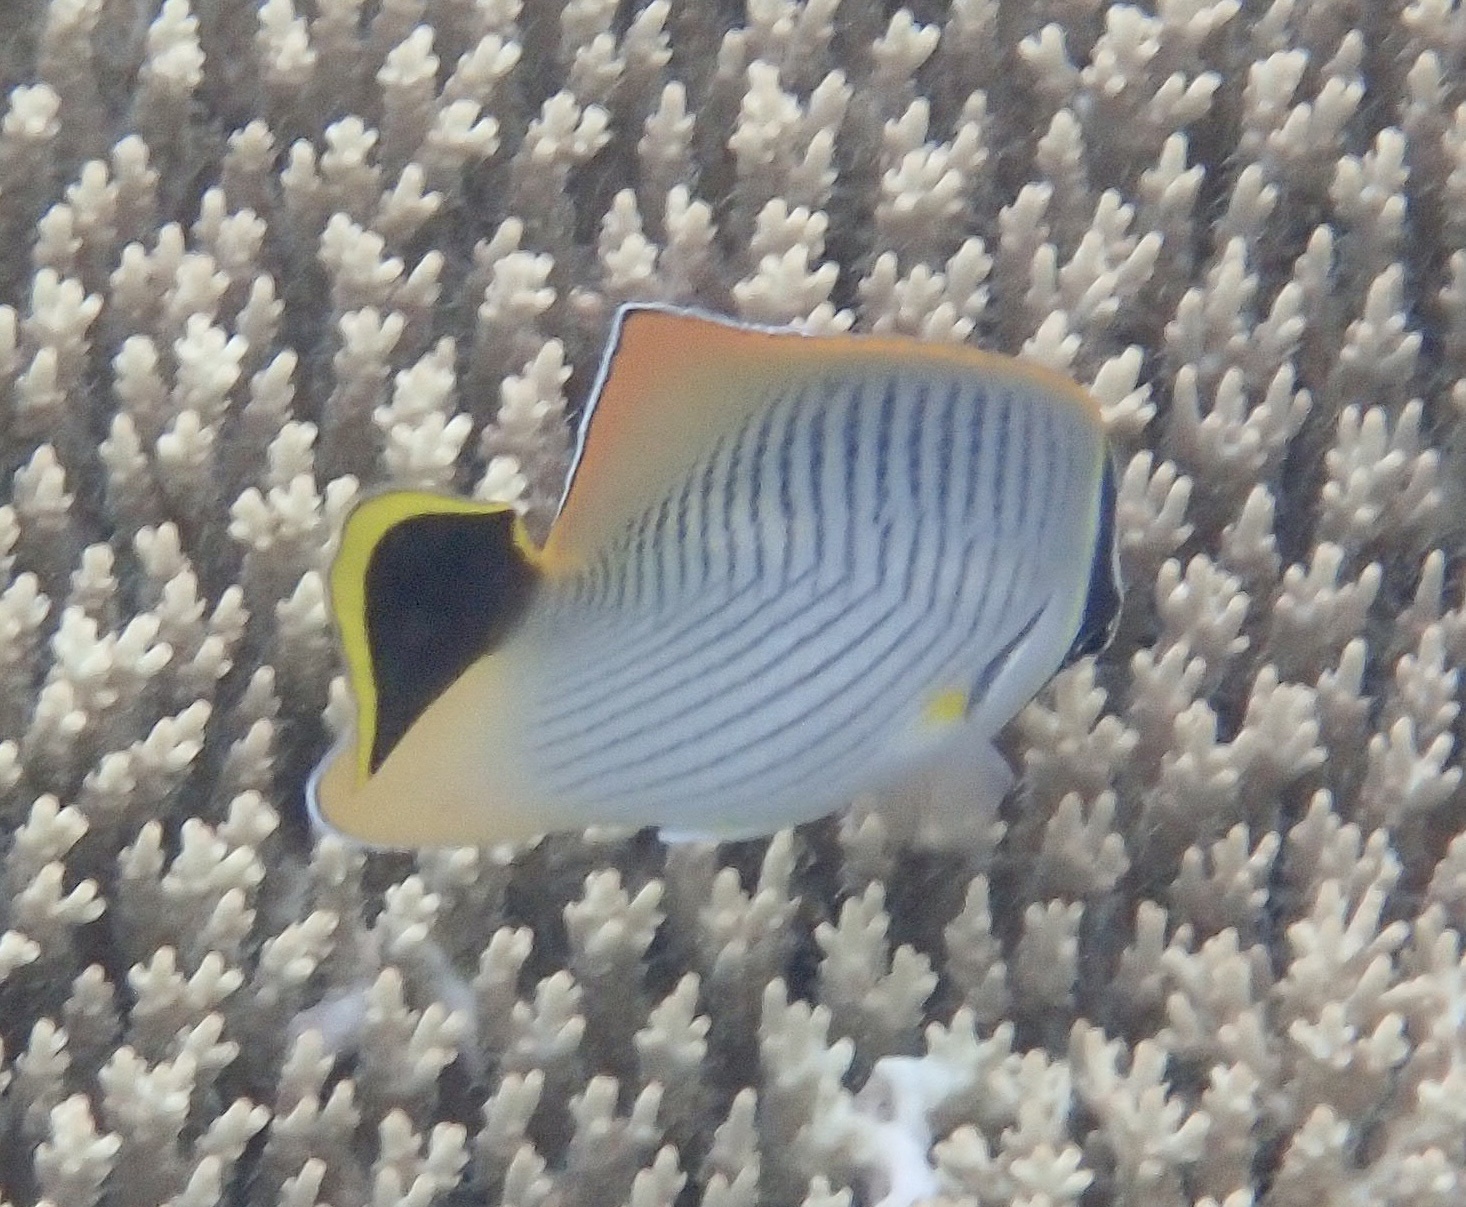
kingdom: Animalia
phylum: Chordata
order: Perciformes
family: Chaetodontidae
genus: Chaetodon
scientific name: Chaetodon trifascialis
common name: Chevroned butterflyfish
